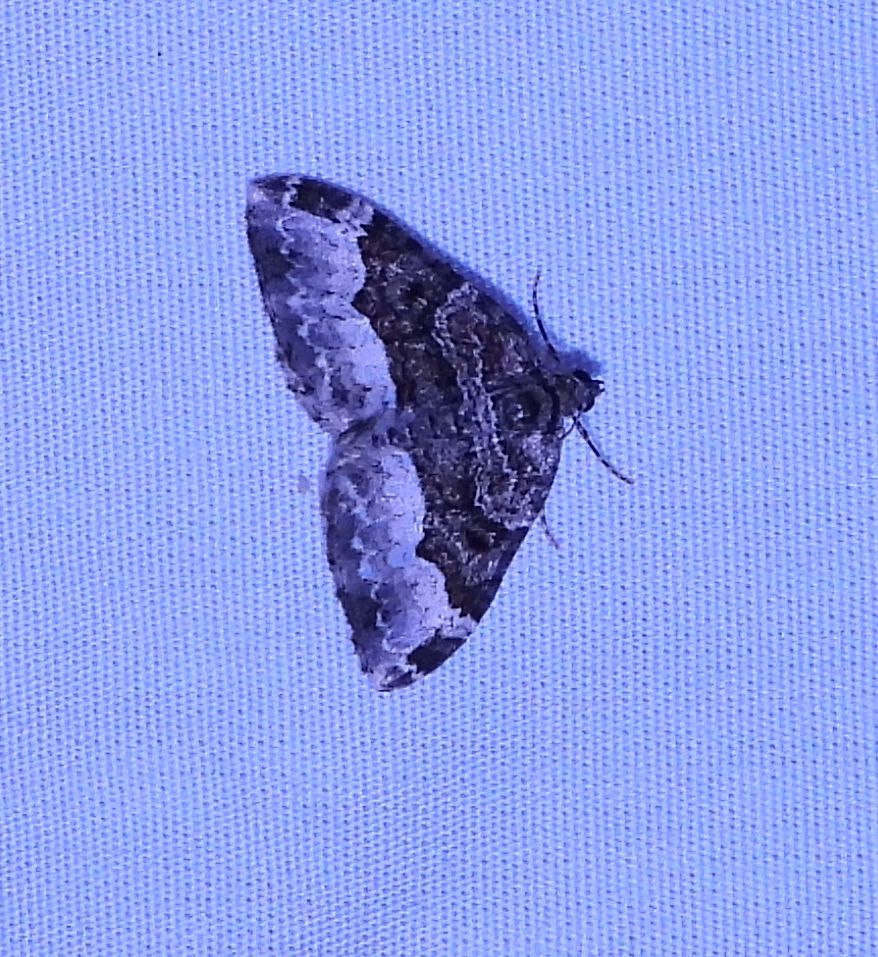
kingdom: Animalia
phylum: Arthropoda
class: Insecta
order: Lepidoptera
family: Geometridae
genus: Euphyia
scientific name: Euphyia intermediata
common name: Sharp-angled carpet
